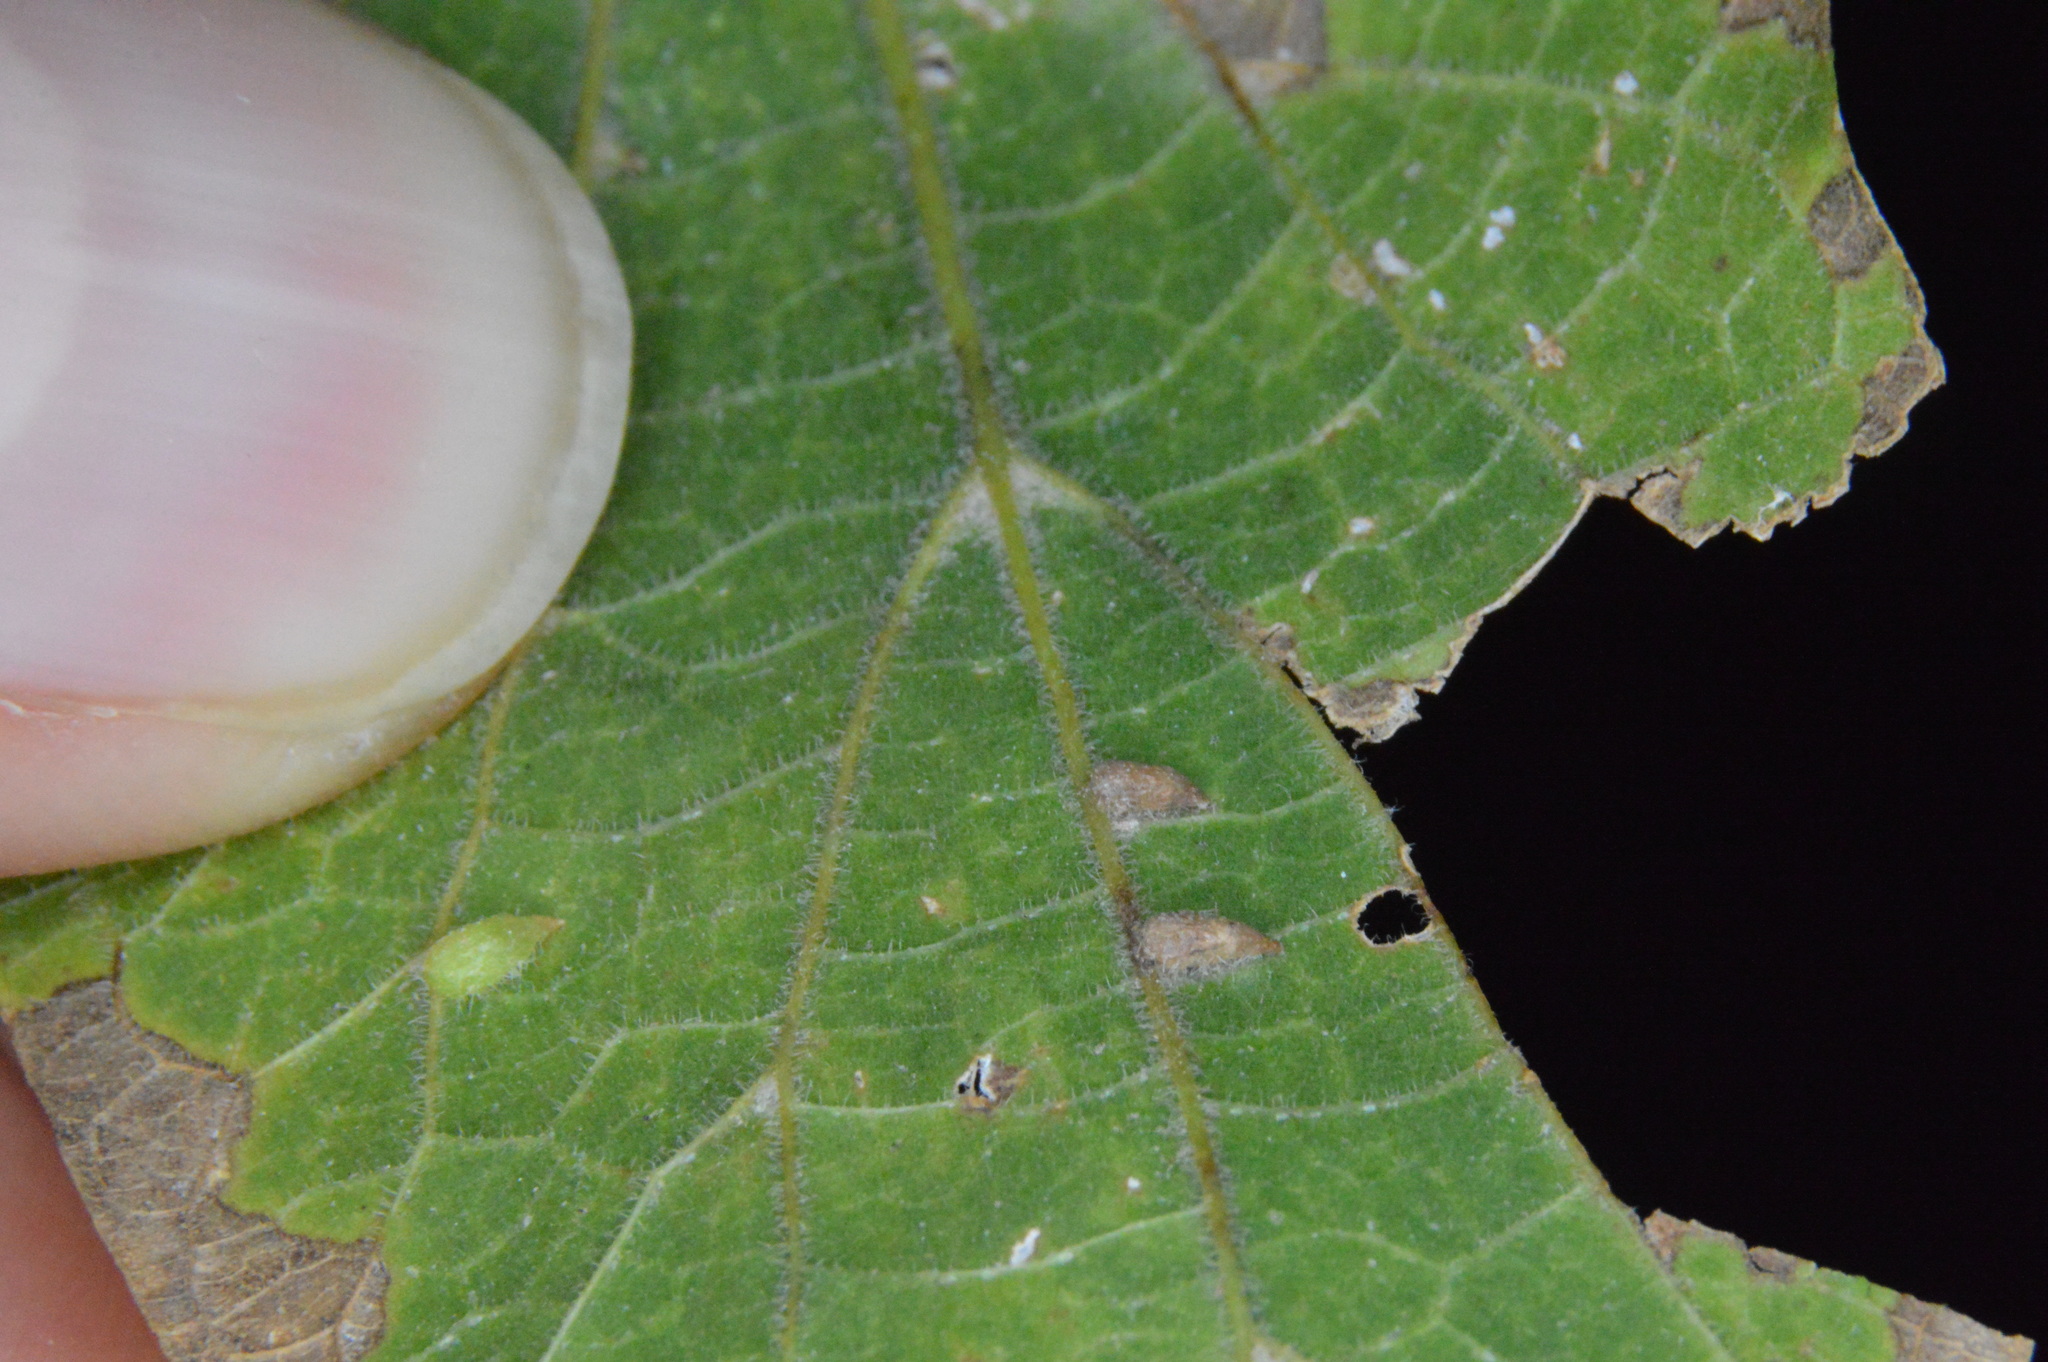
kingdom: Animalia
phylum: Arthropoda
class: Insecta
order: Diptera
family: Cecidomyiidae
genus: Celticecis
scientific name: Celticecis supina
